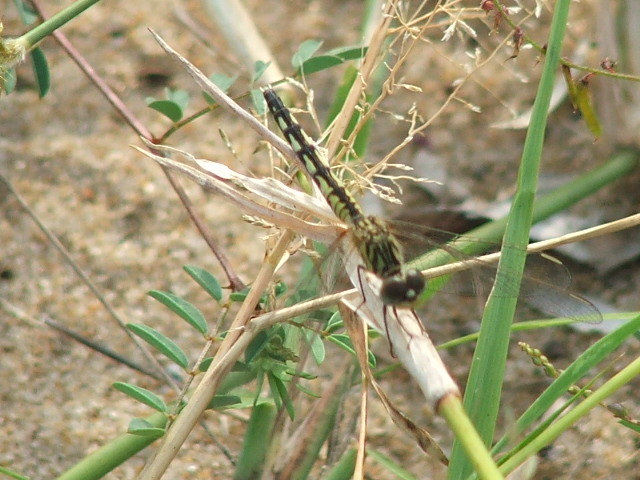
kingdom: Animalia
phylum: Arthropoda
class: Insecta
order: Odonata
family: Libellulidae
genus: Diplacodes
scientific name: Diplacodes lefebvrii
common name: Black percher
